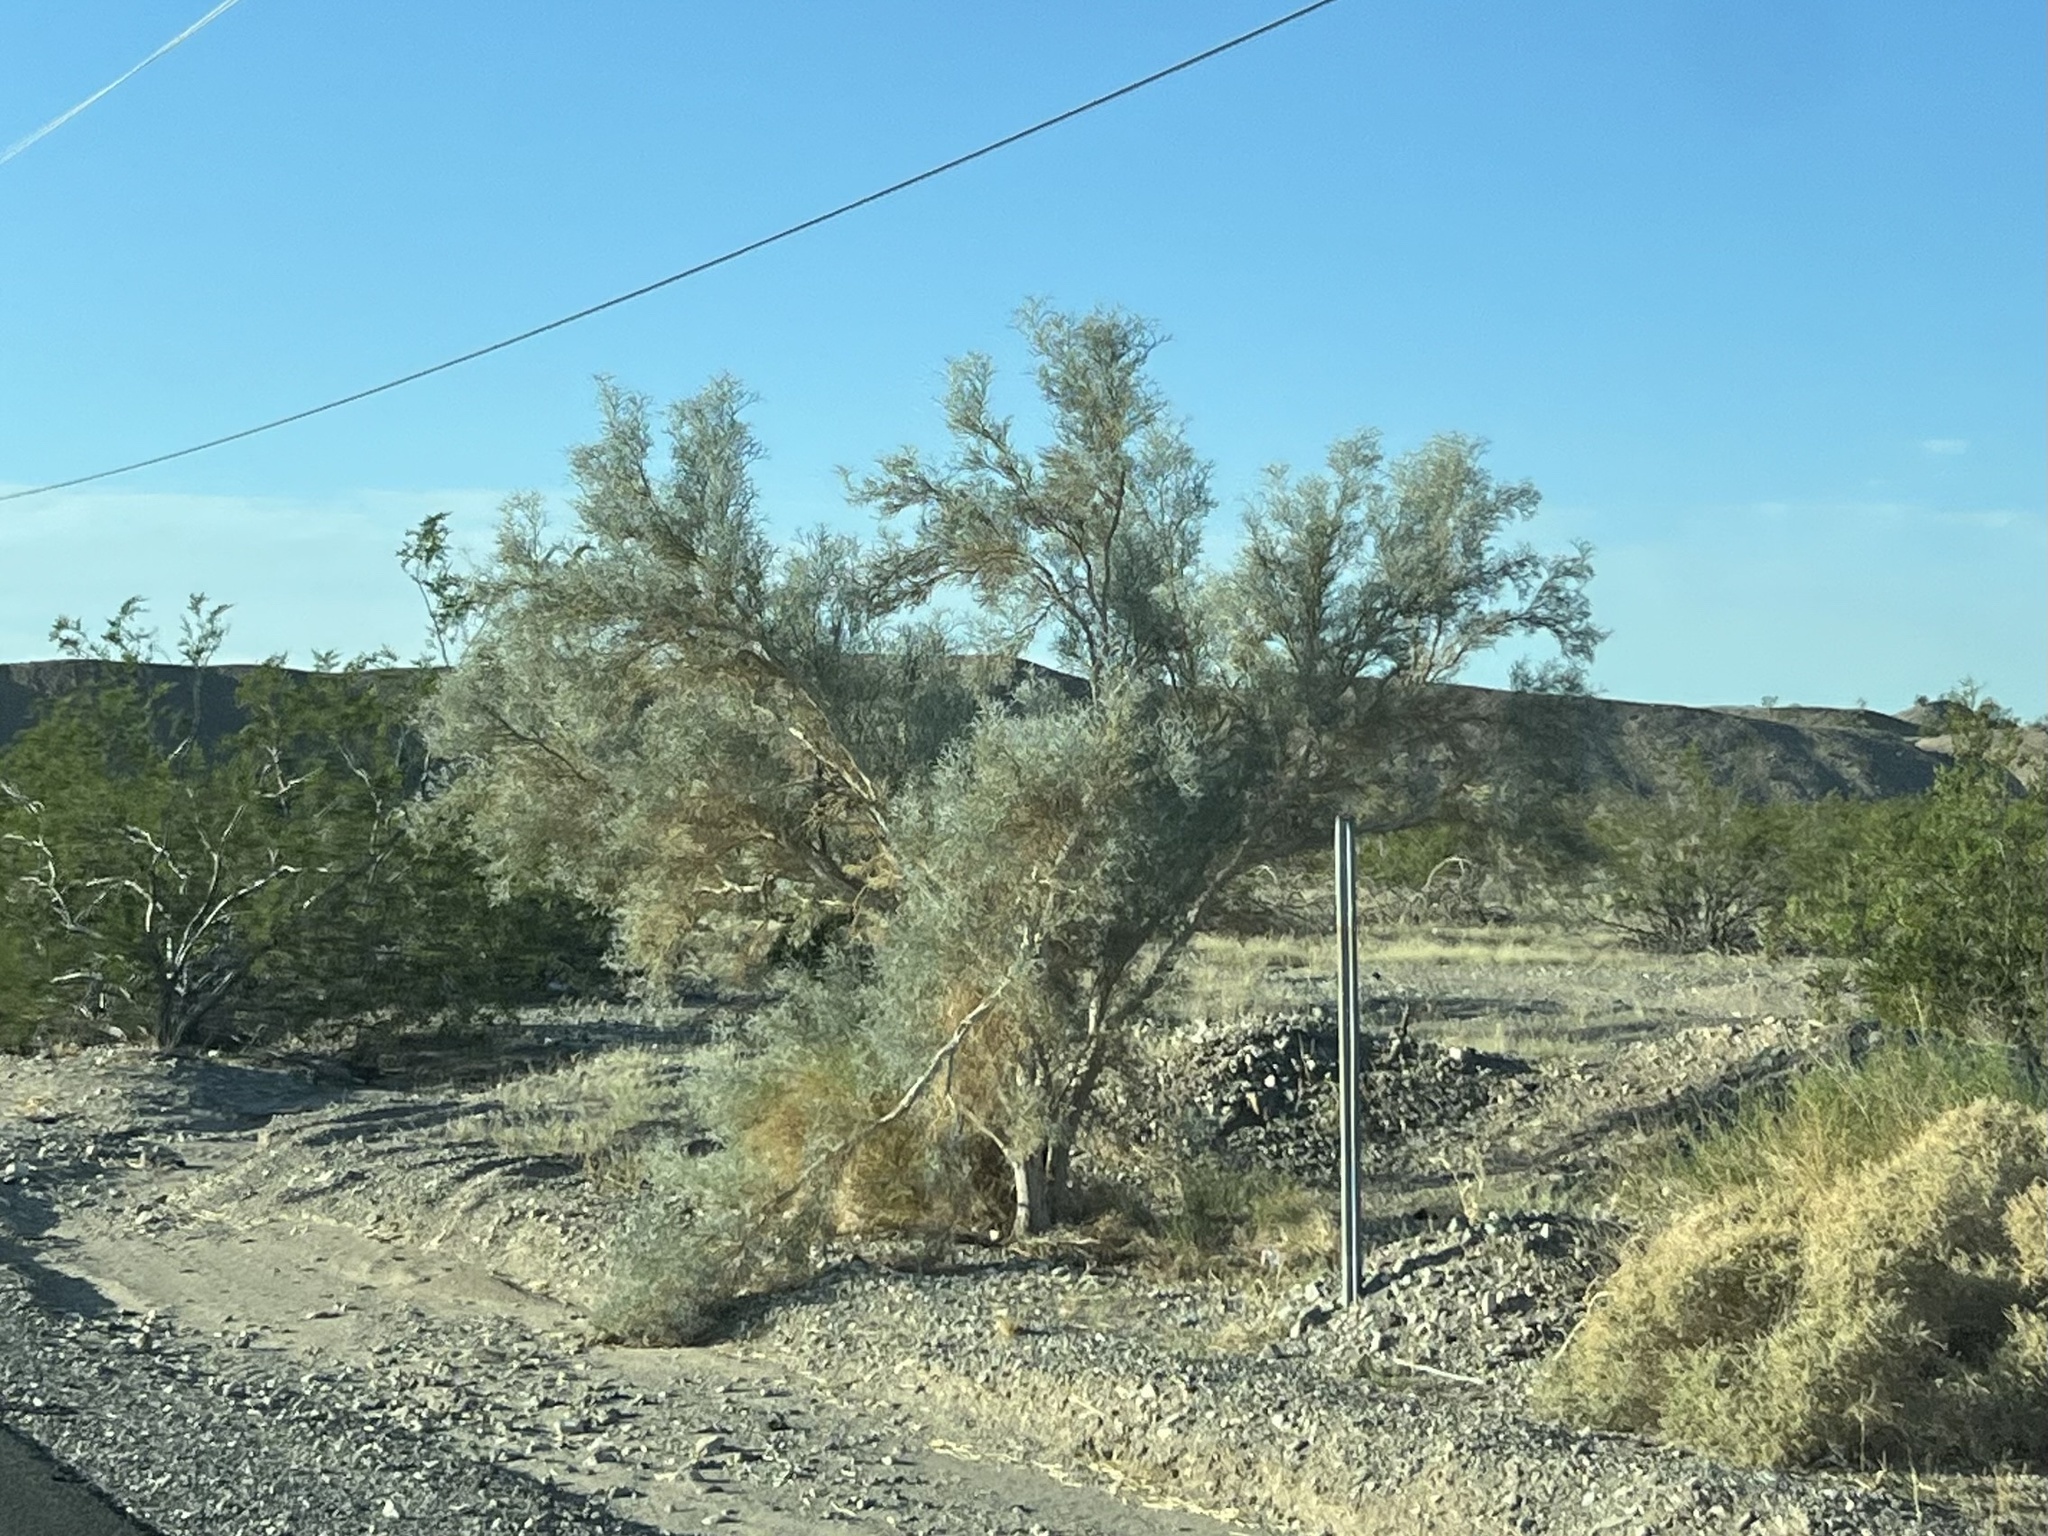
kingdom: Plantae
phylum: Tracheophyta
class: Magnoliopsida
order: Fabales
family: Fabaceae
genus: Psorothamnus
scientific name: Psorothamnus spinosus
